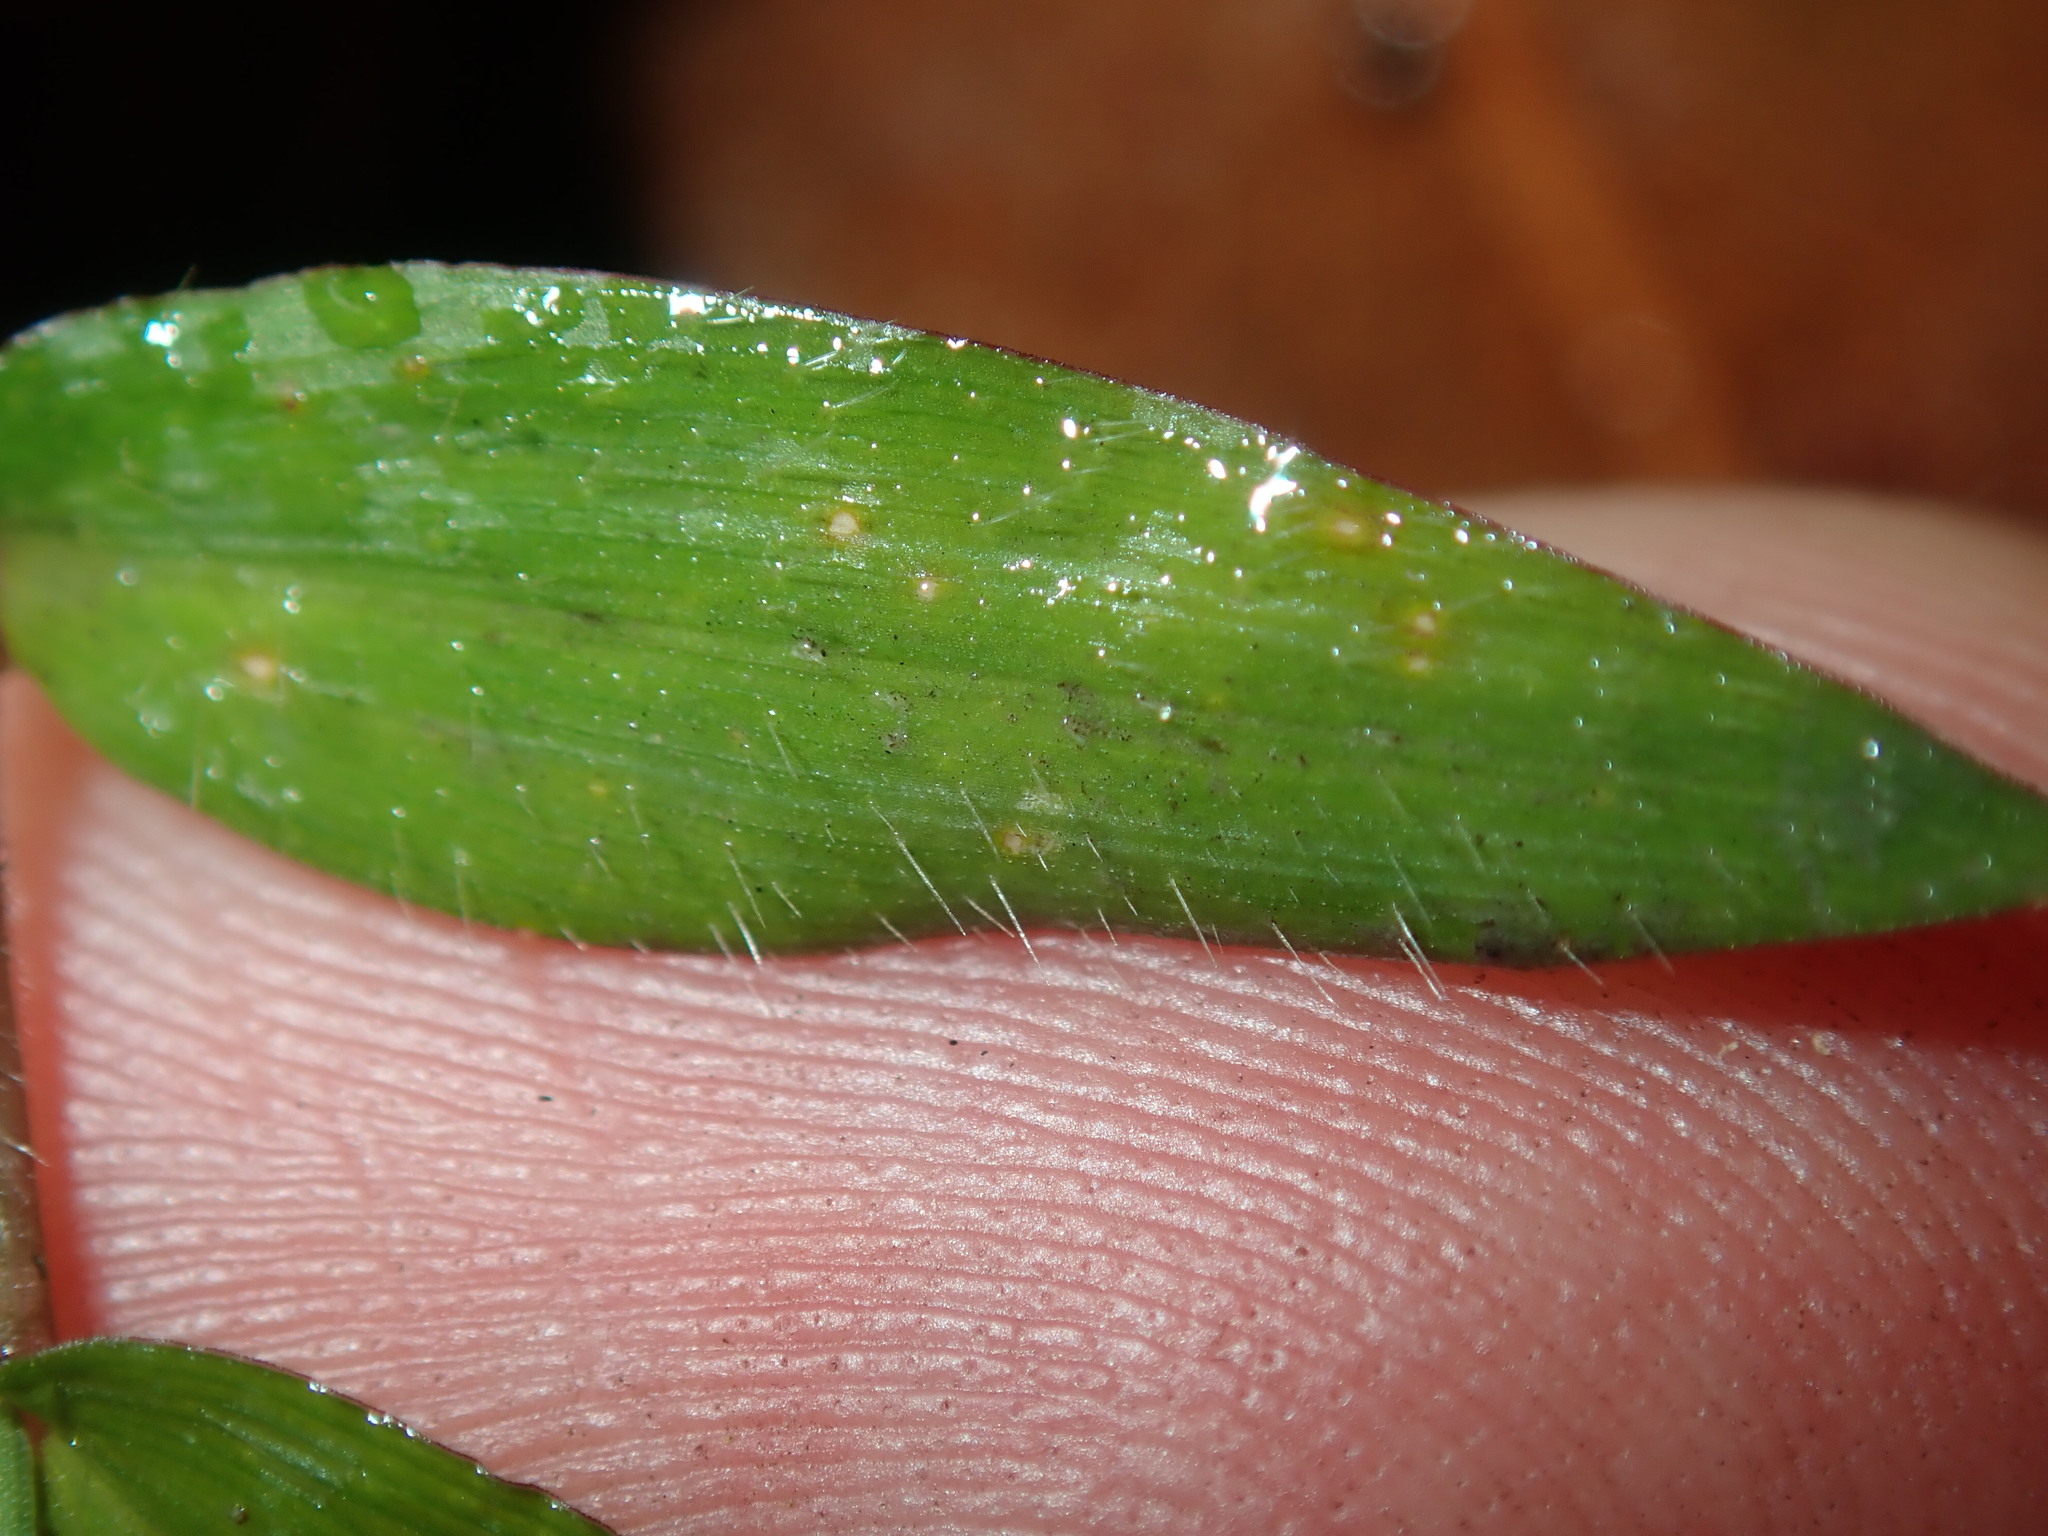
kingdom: Plantae
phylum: Tracheophyta
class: Liliopsida
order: Poales
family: Poaceae
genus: Oplismenus
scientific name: Oplismenus hirtellus
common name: Basketgrass
